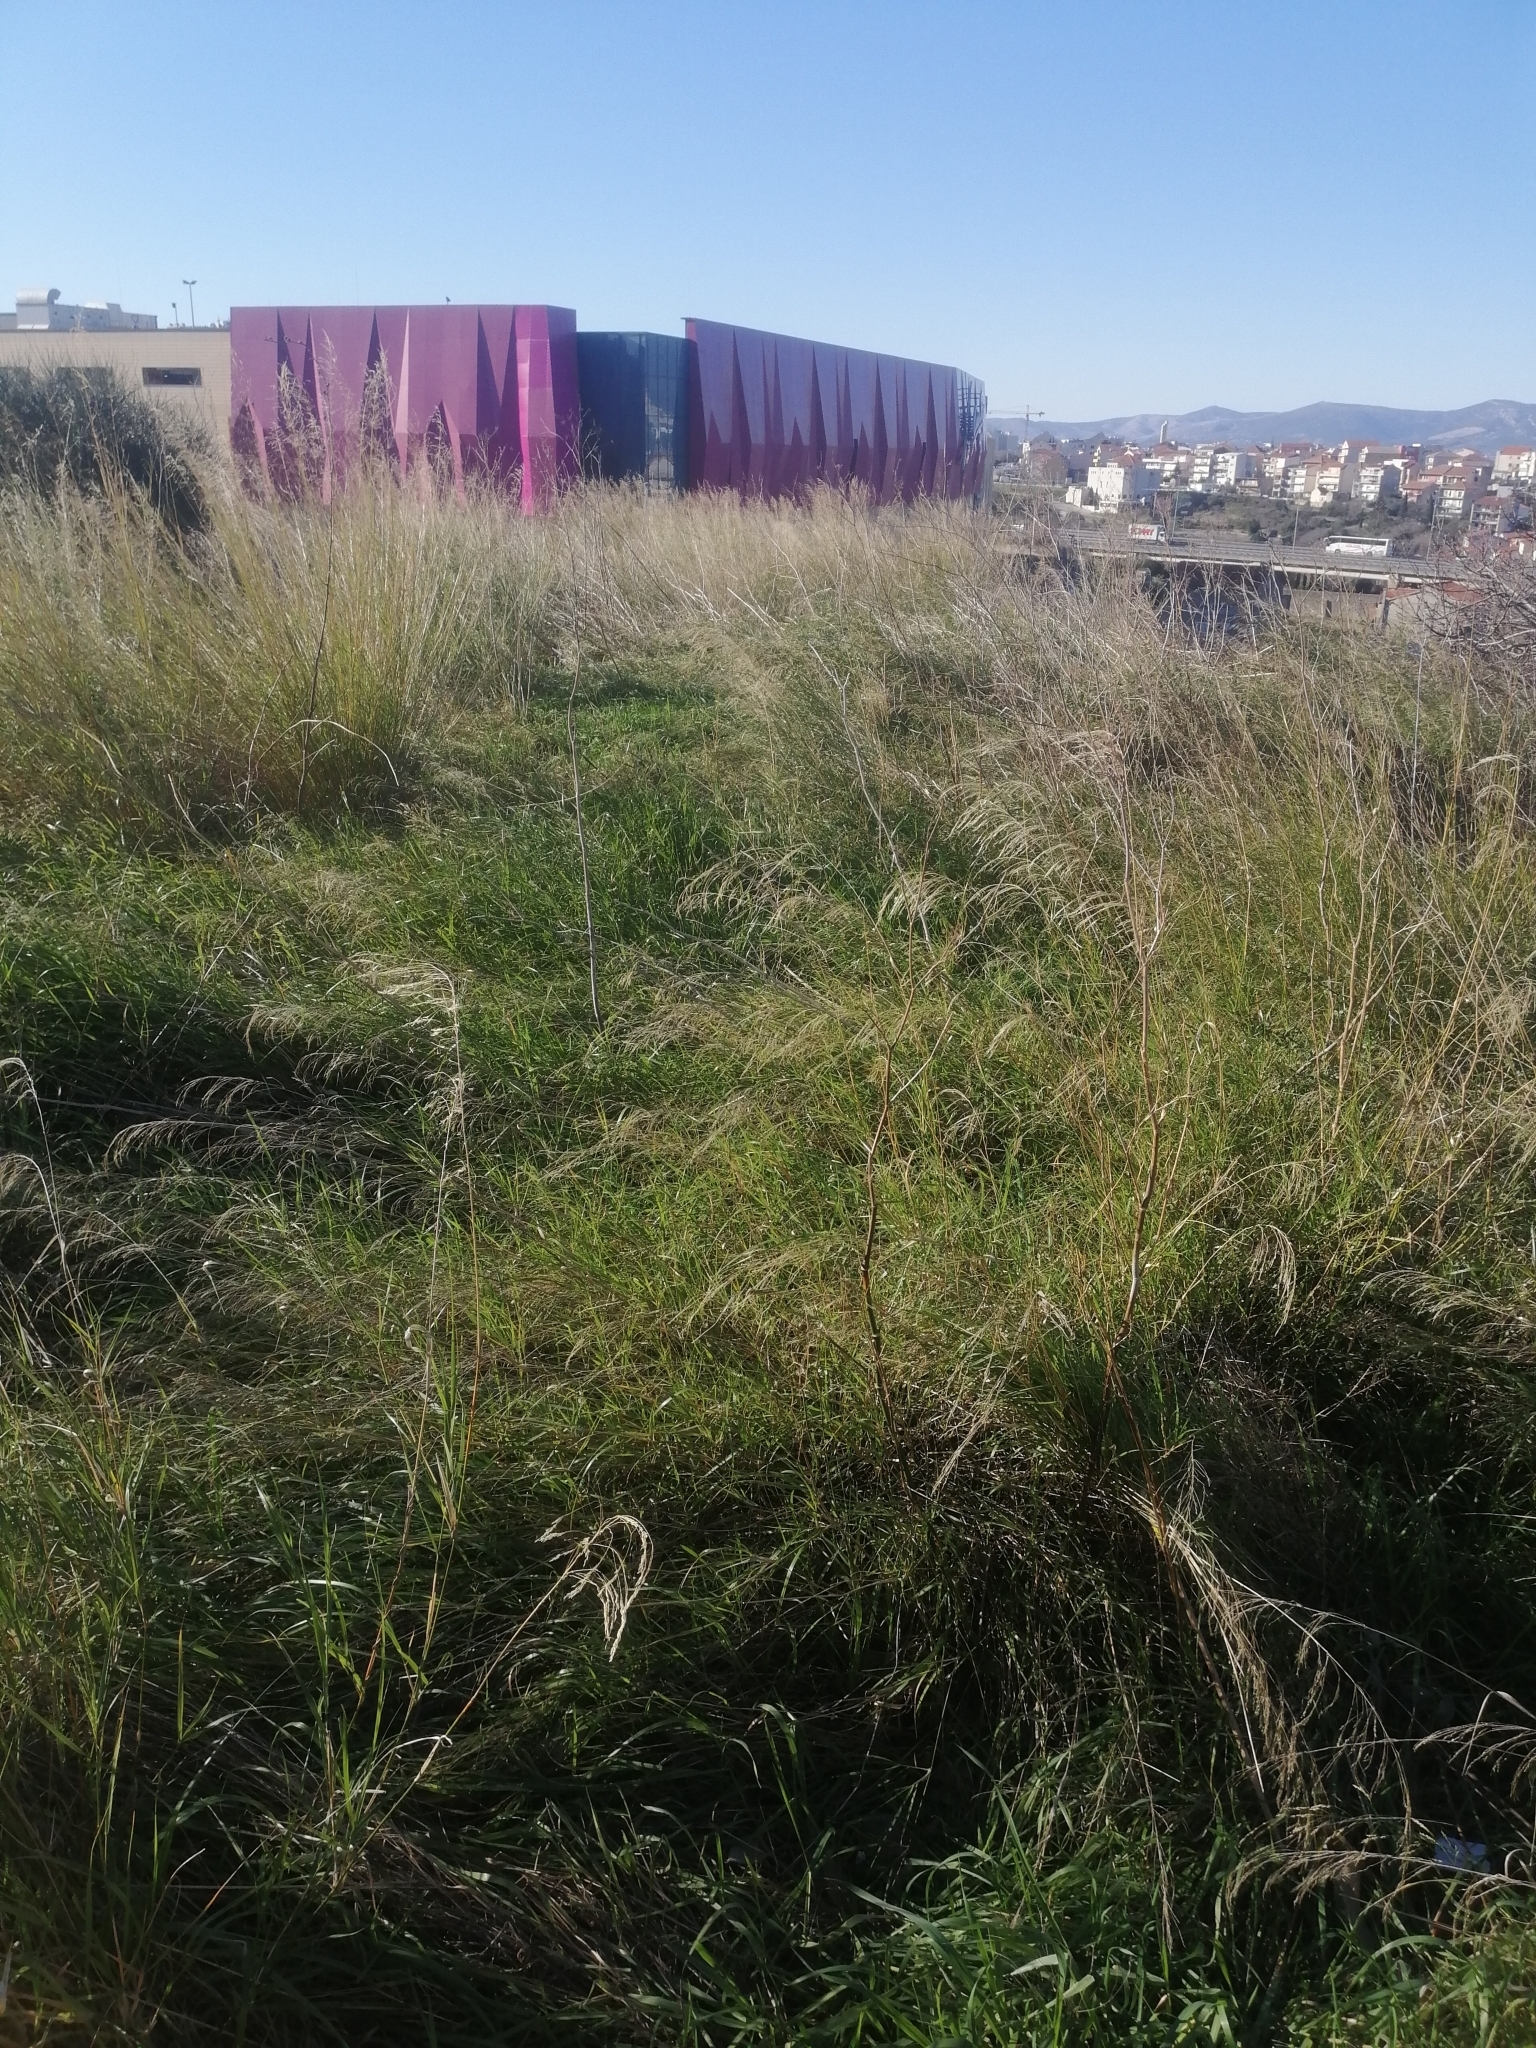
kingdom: Plantae
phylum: Tracheophyta
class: Liliopsida
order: Poales
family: Poaceae
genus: Oloptum
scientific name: Oloptum miliaceum
